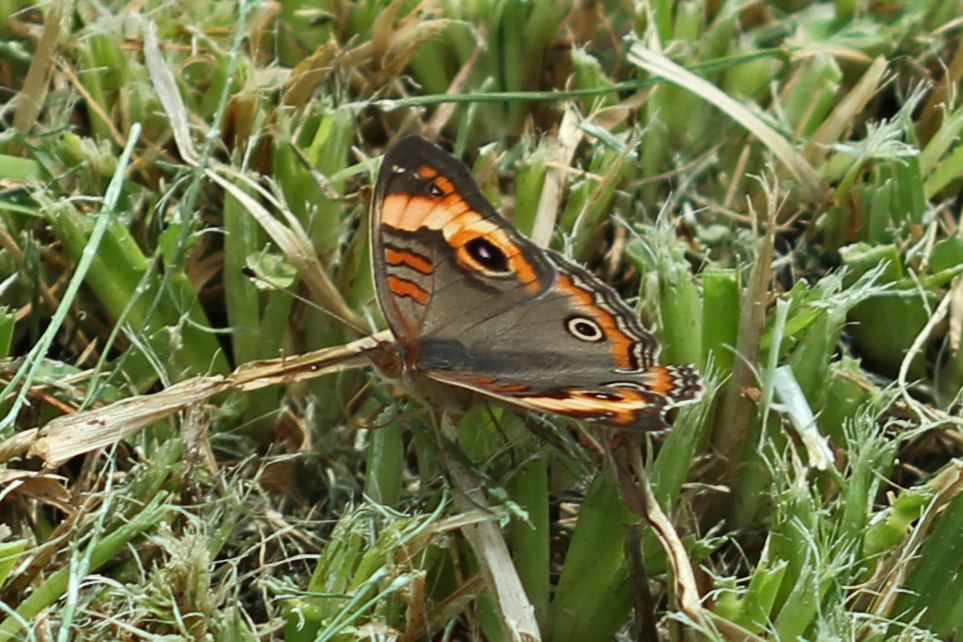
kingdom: Animalia
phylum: Arthropoda
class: Insecta
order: Lepidoptera
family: Nymphalidae
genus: Junonia
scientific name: Junonia lavinia
